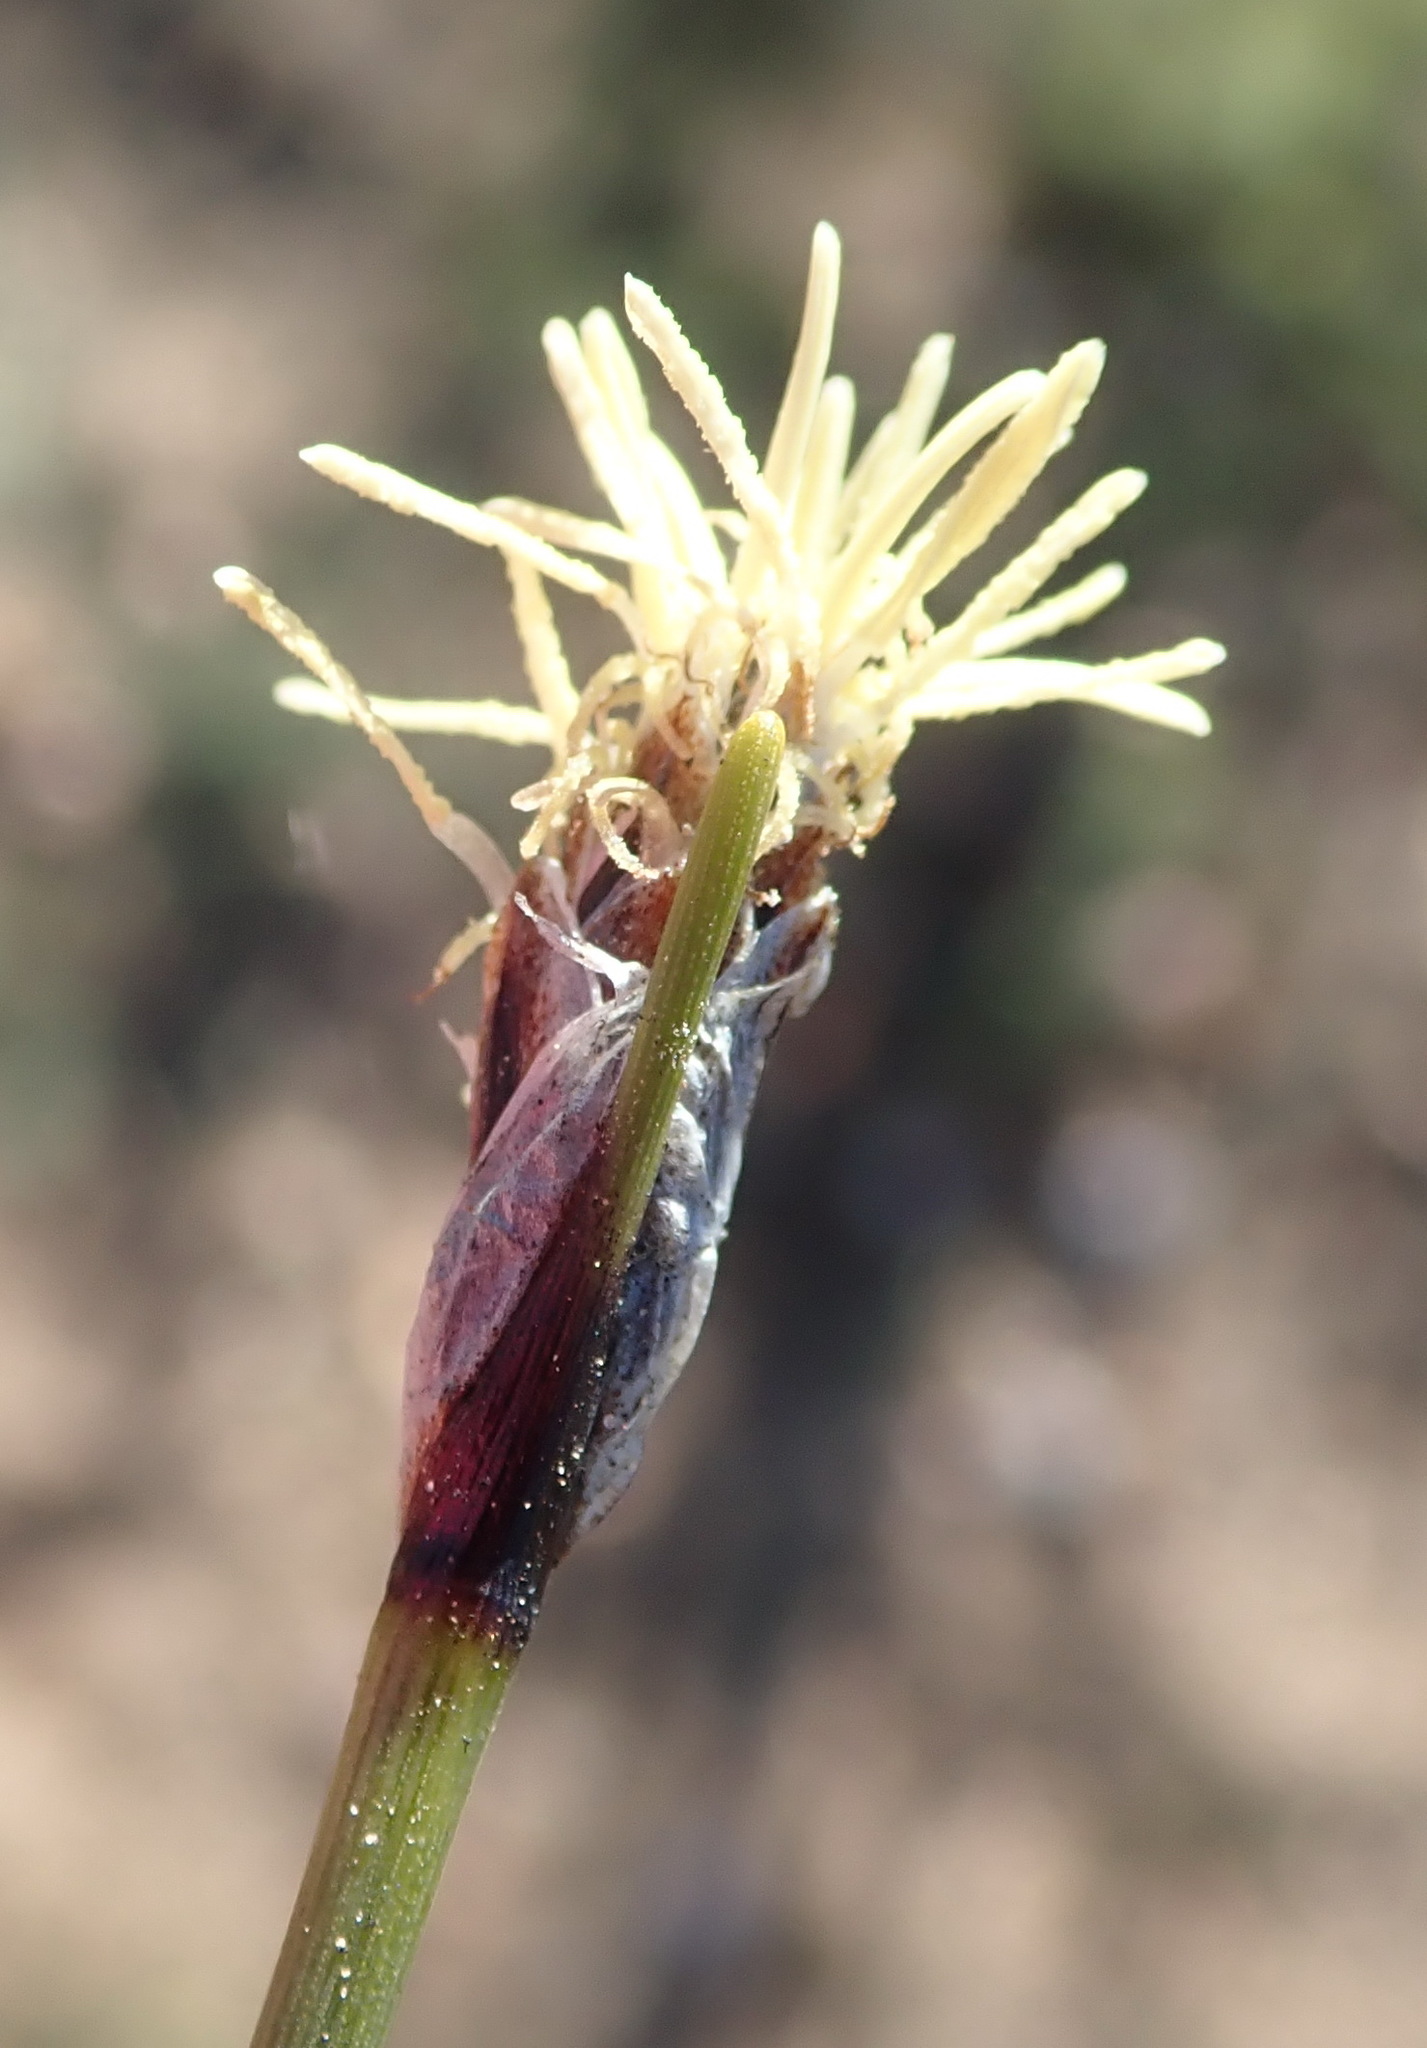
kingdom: Plantae
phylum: Tracheophyta
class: Liliopsida
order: Poales
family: Cyperaceae
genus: Ficinia
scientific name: Ficinia ixioides
